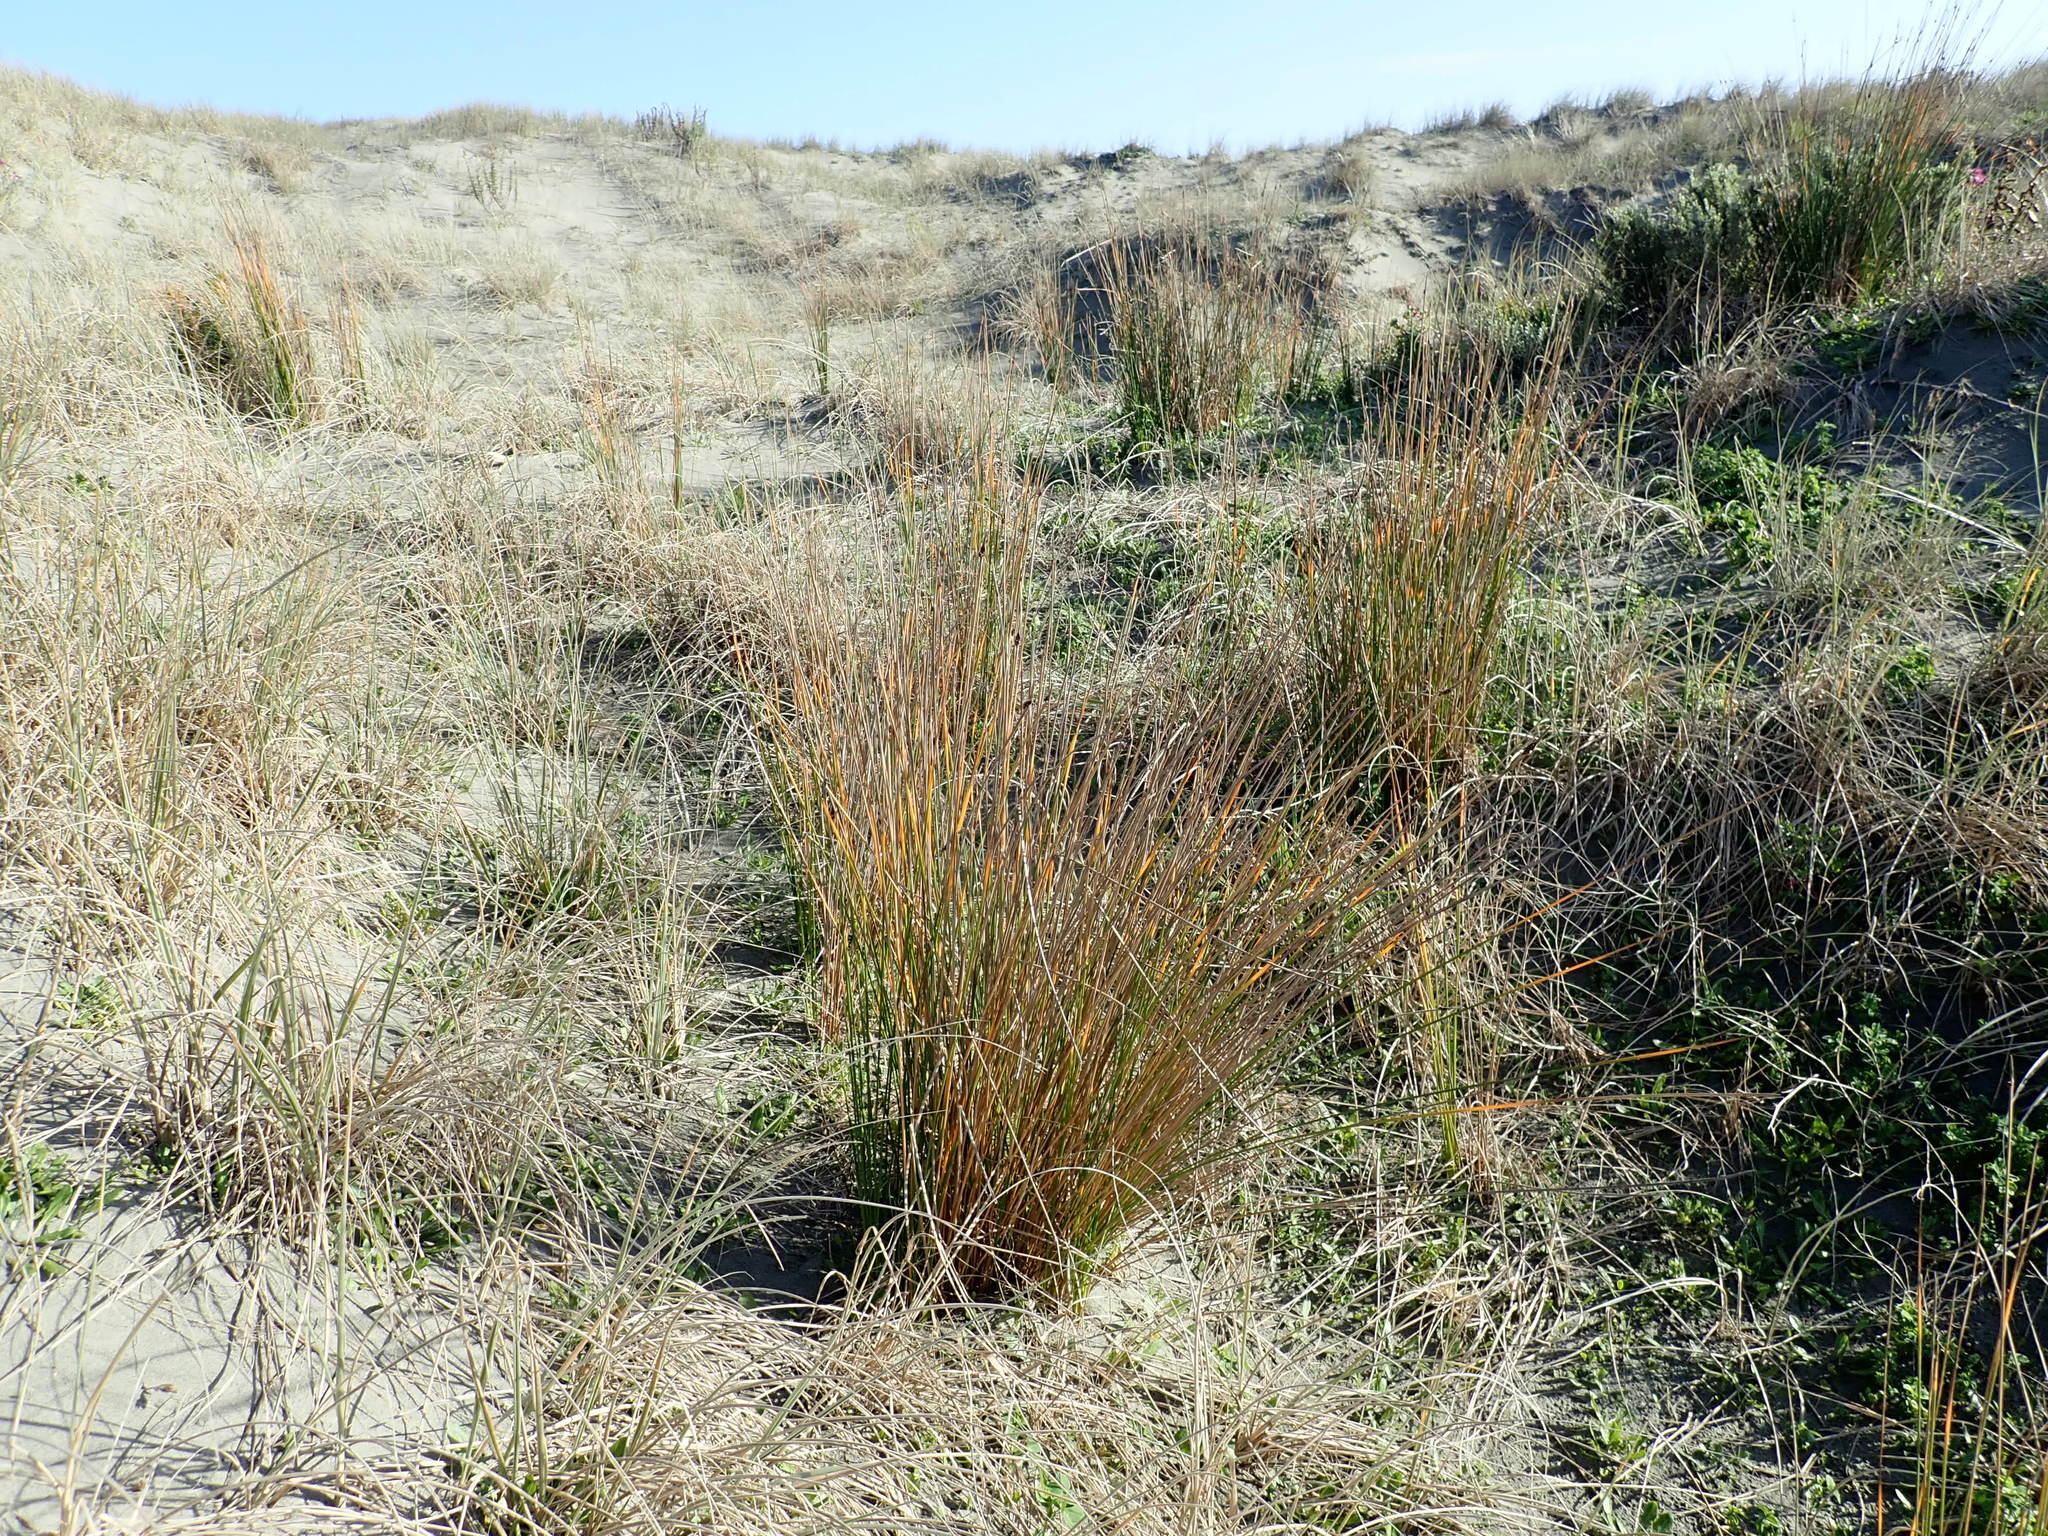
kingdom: Plantae
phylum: Tracheophyta
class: Liliopsida
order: Poales
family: Cyperaceae
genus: Ficinia
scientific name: Ficinia nodosa
